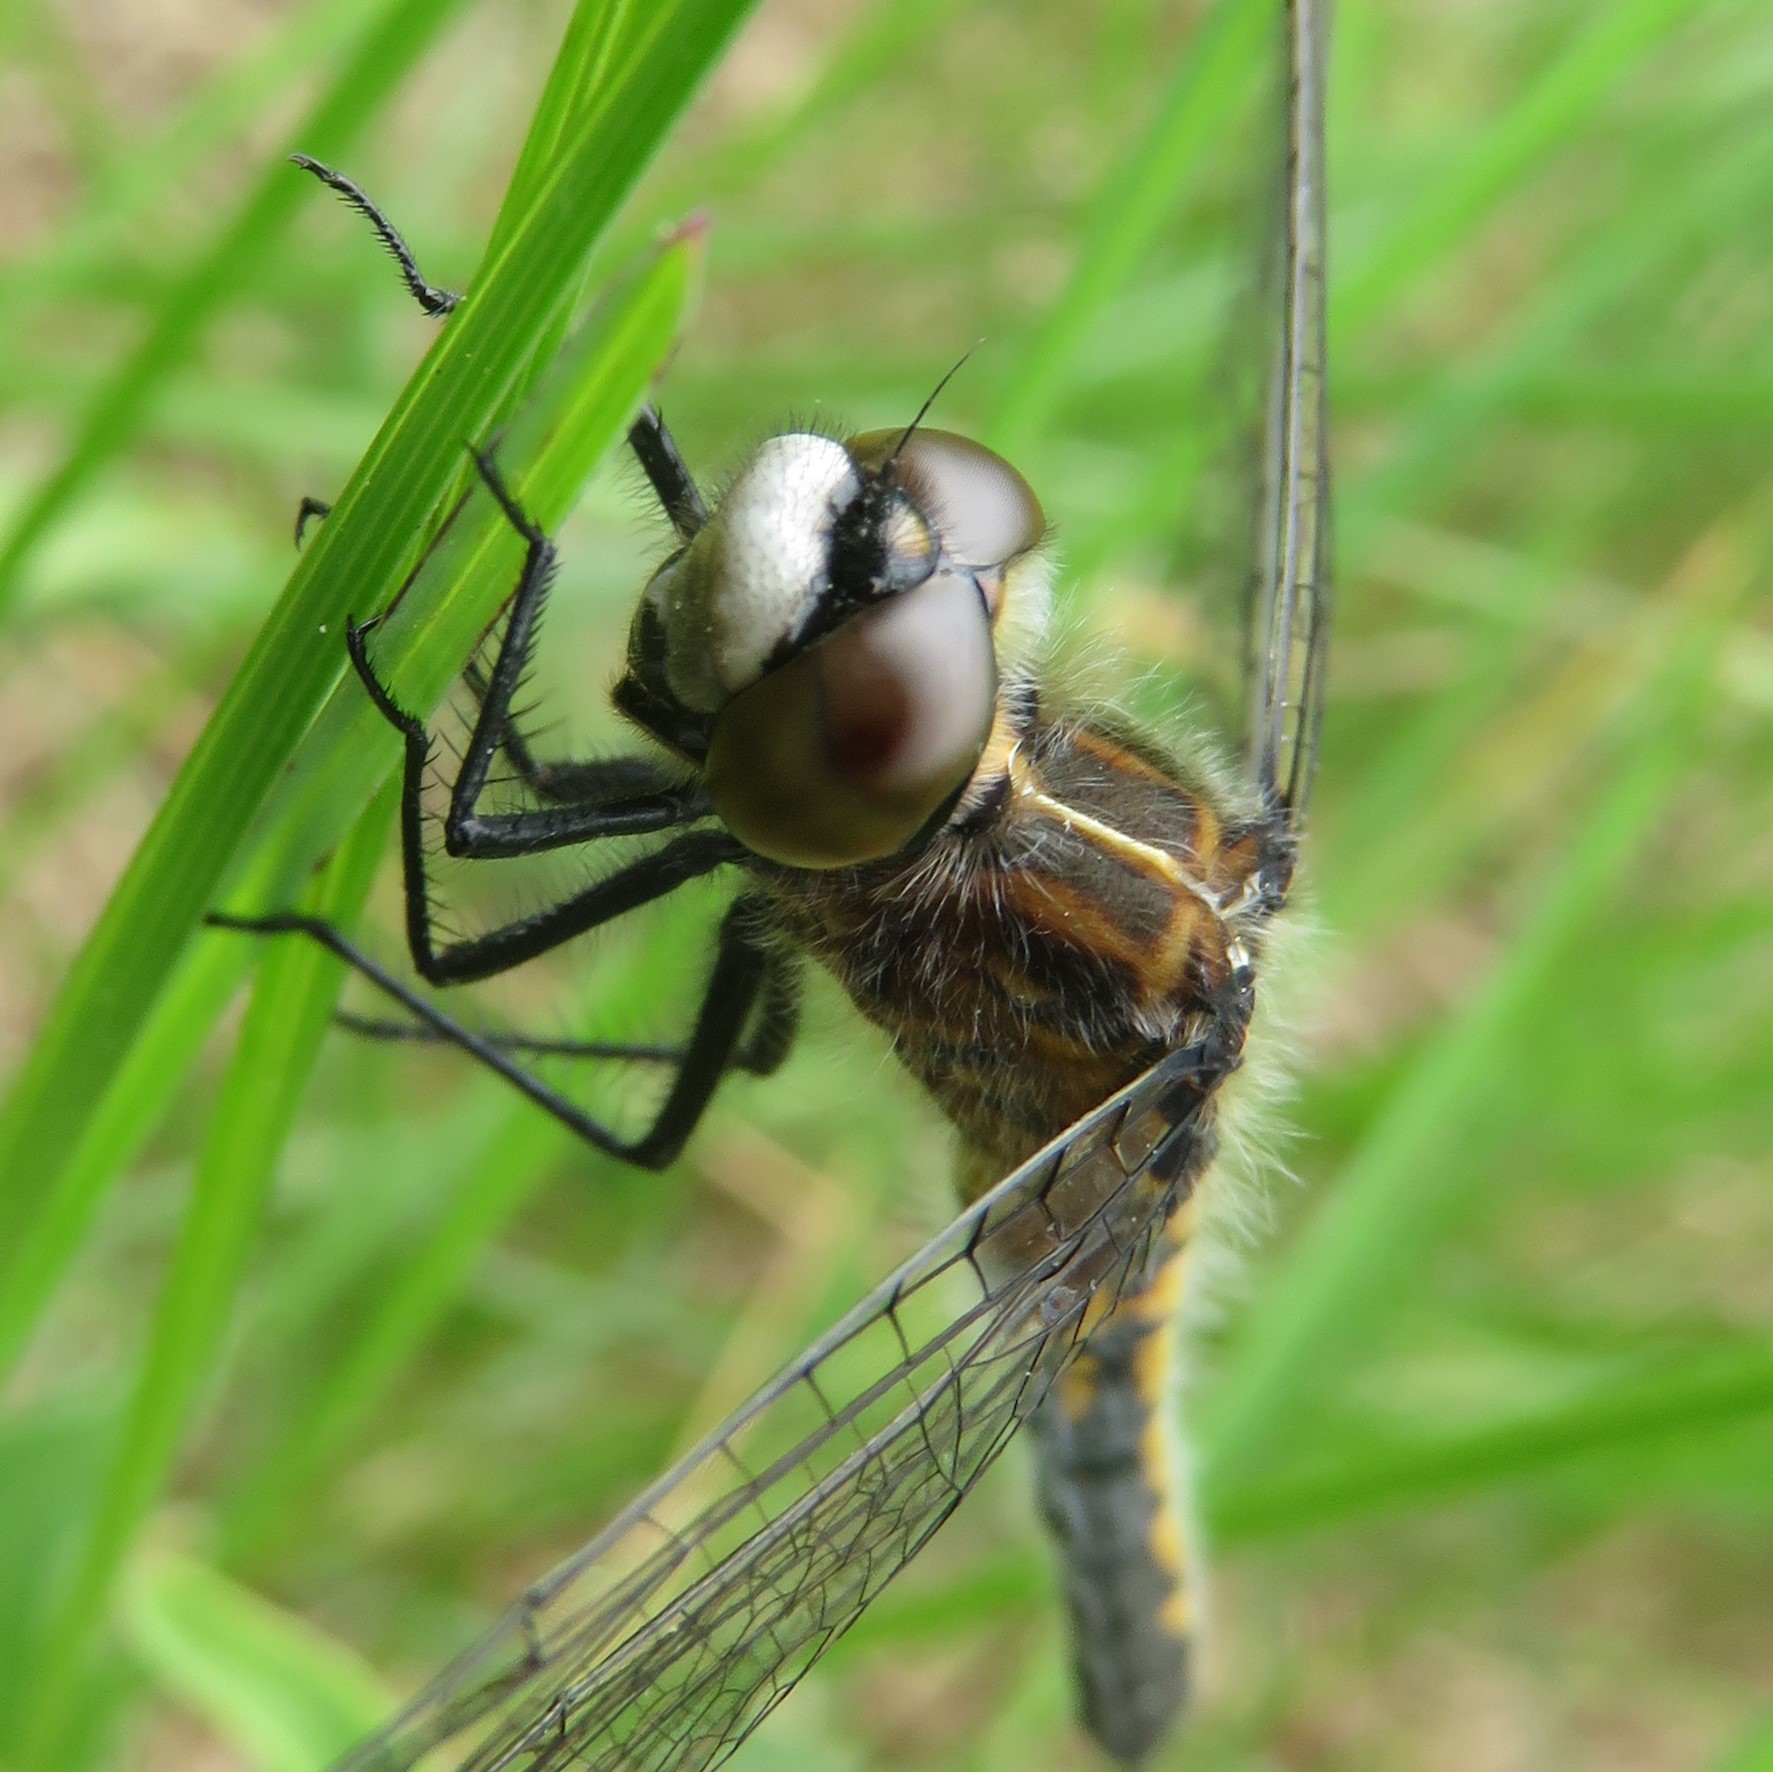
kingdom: Animalia
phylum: Arthropoda
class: Insecta
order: Odonata
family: Libellulidae
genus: Leucorrhinia
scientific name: Leucorrhinia intacta
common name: Dot-tailed whiteface
